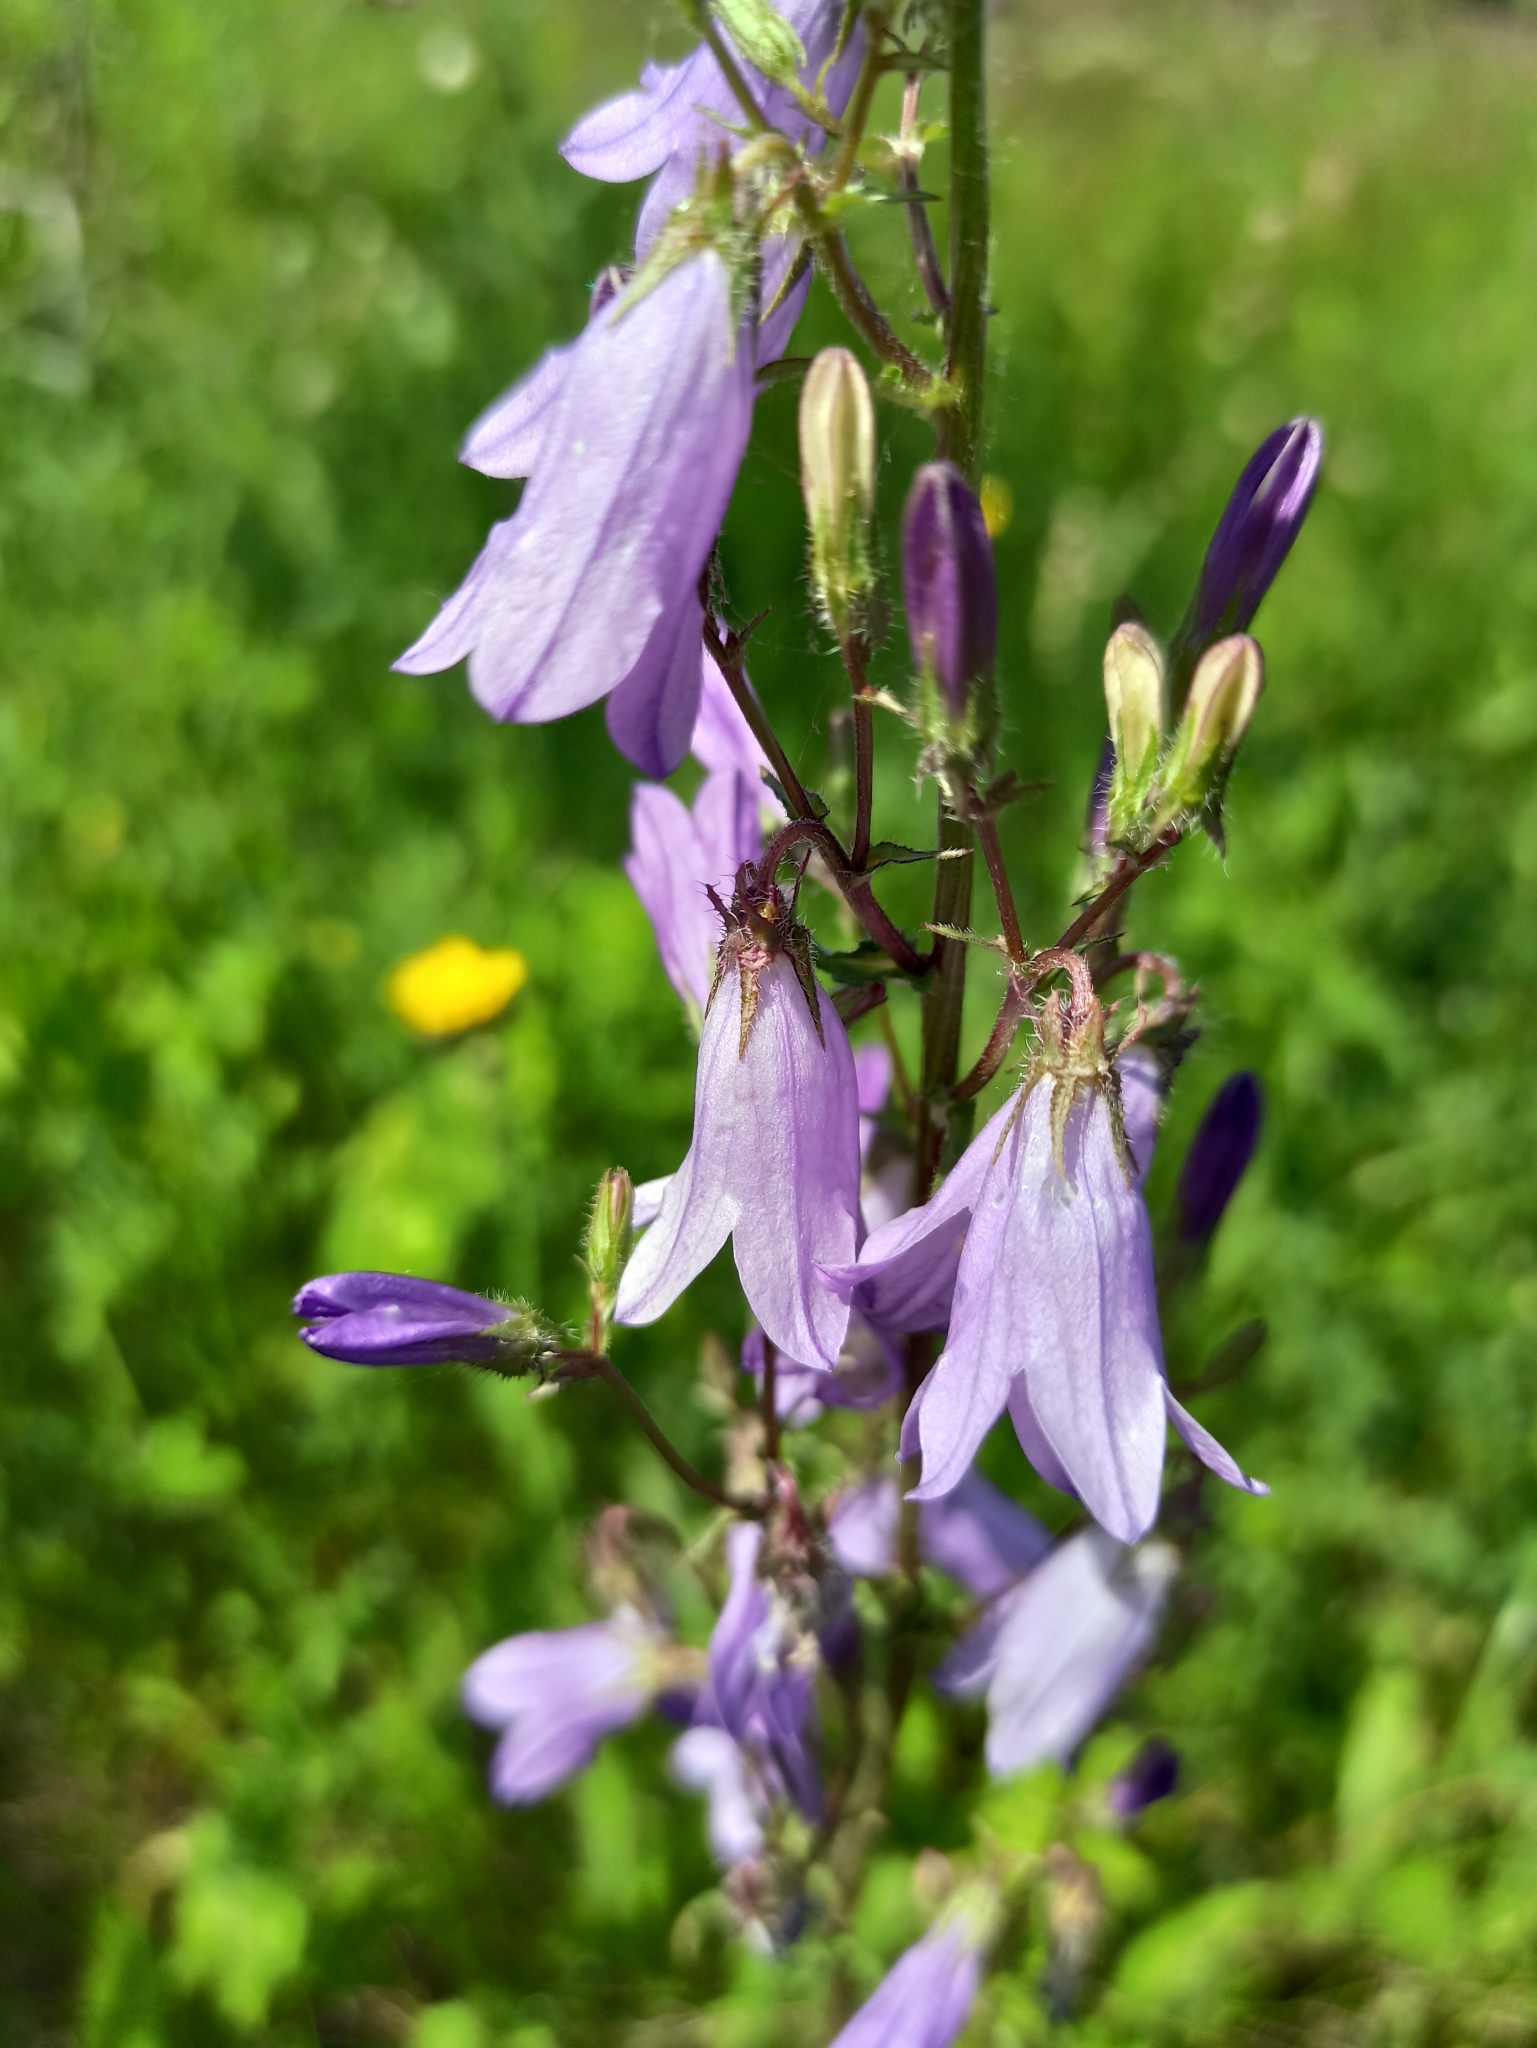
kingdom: Plantae
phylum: Tracheophyta
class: Magnoliopsida
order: Asterales
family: Campanulaceae
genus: Campanula
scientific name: Campanula sibirica
